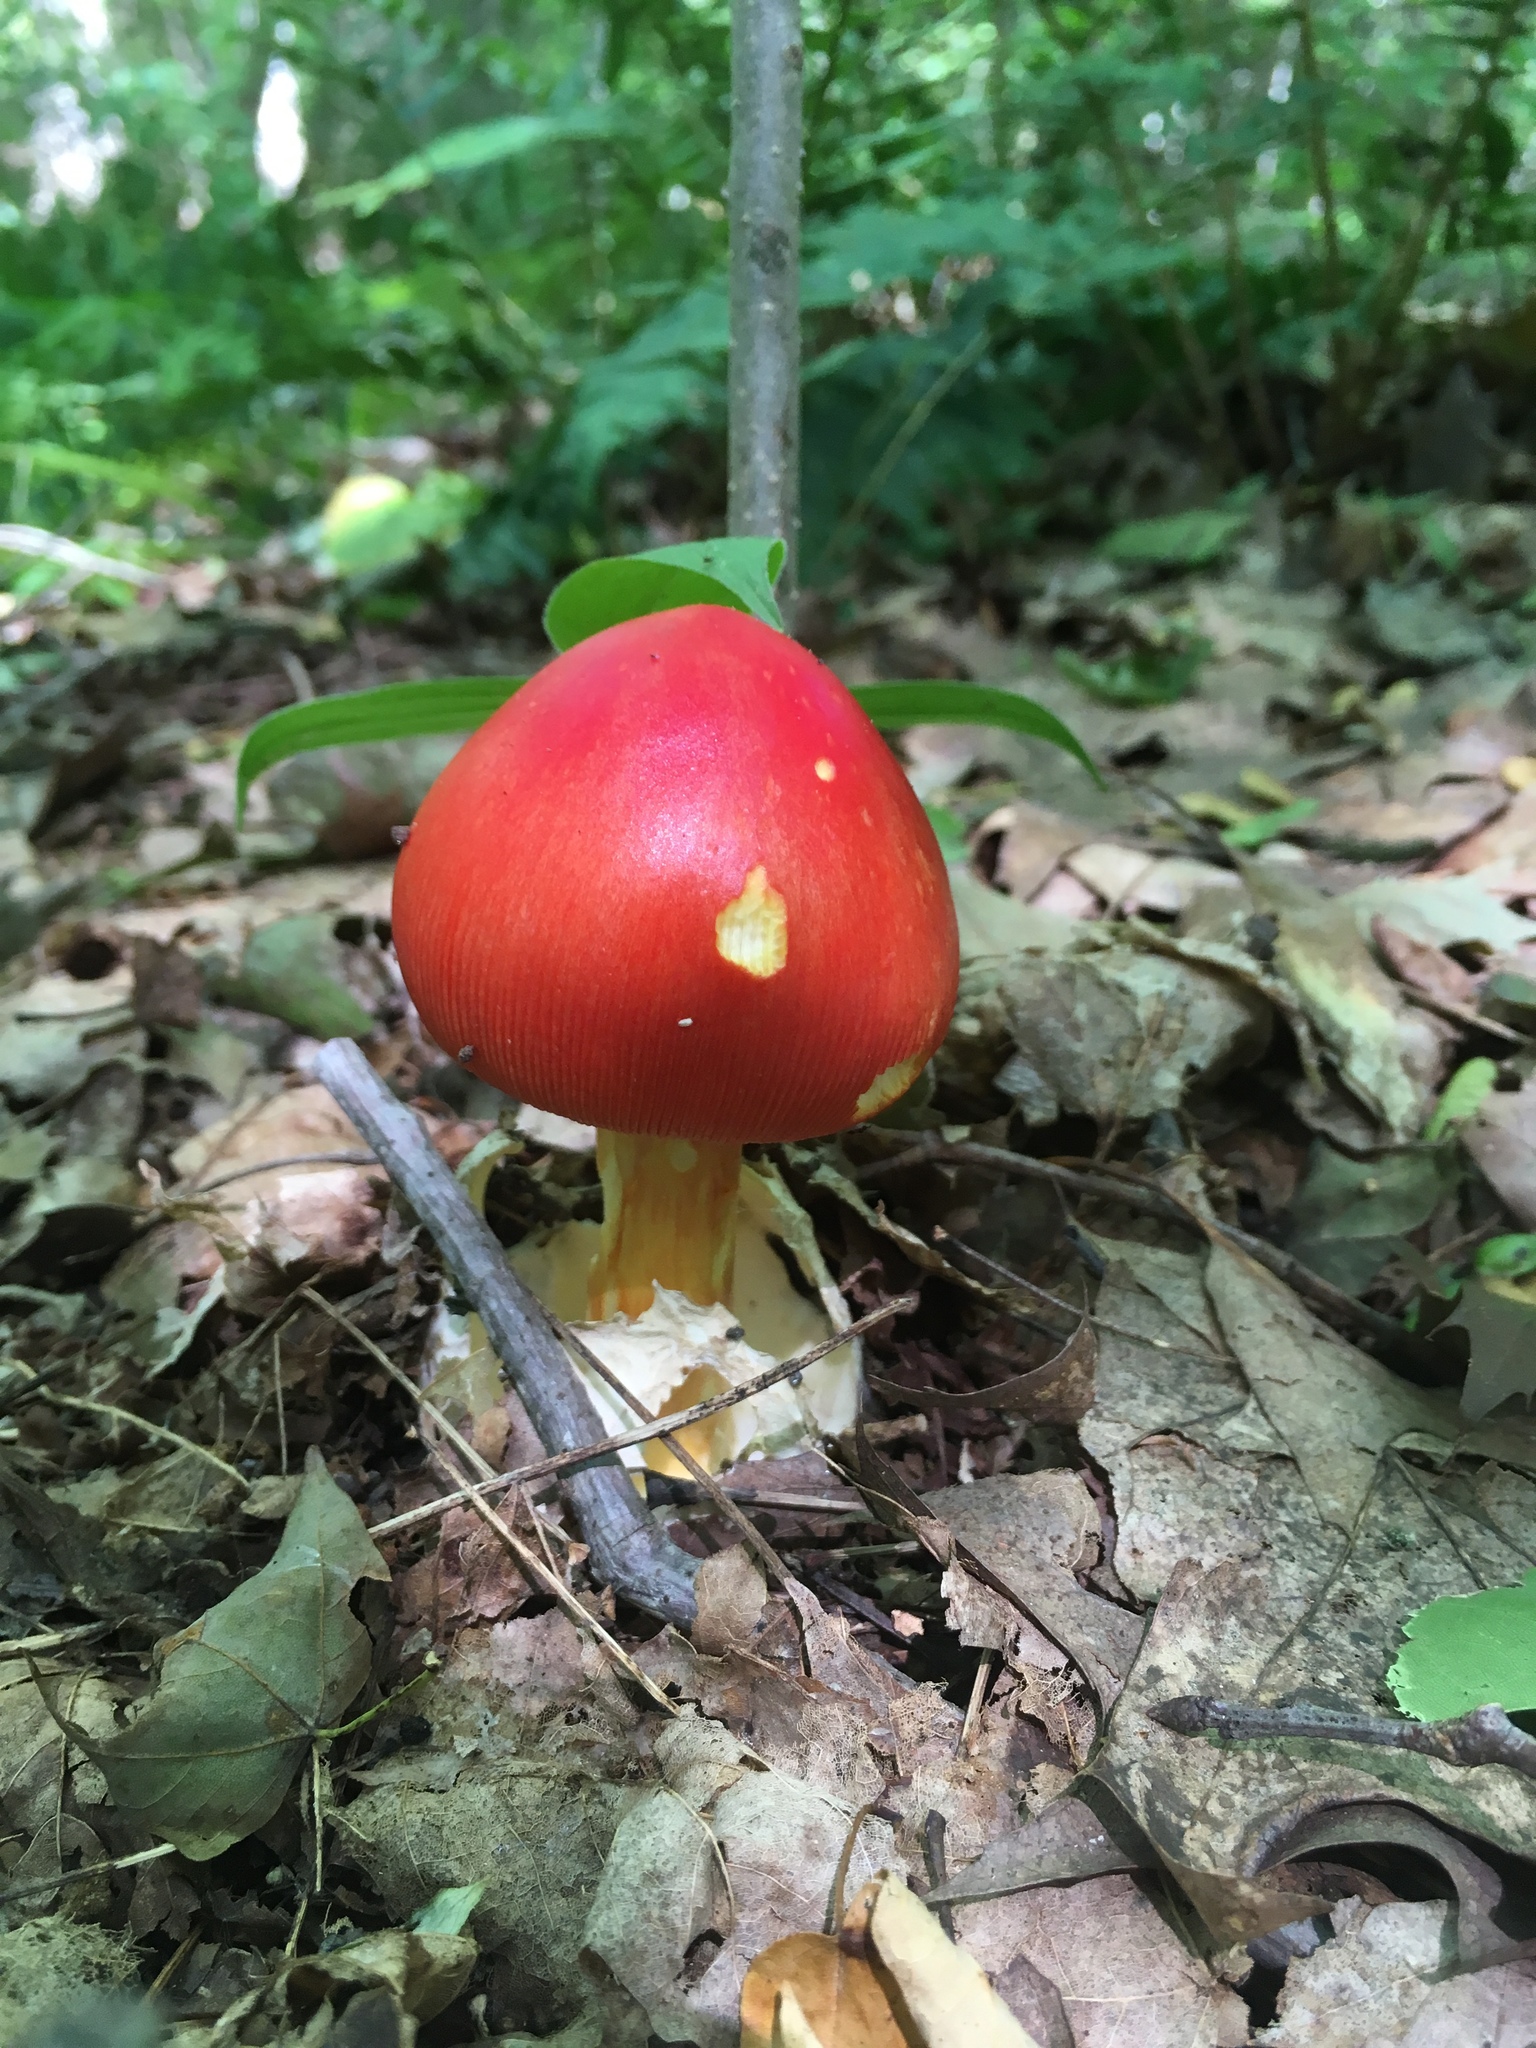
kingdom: Fungi
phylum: Basidiomycota
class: Agaricomycetes
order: Agaricales
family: Amanitaceae
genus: Amanita
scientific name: Amanita jacksonii
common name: Jackson's slender caesar
